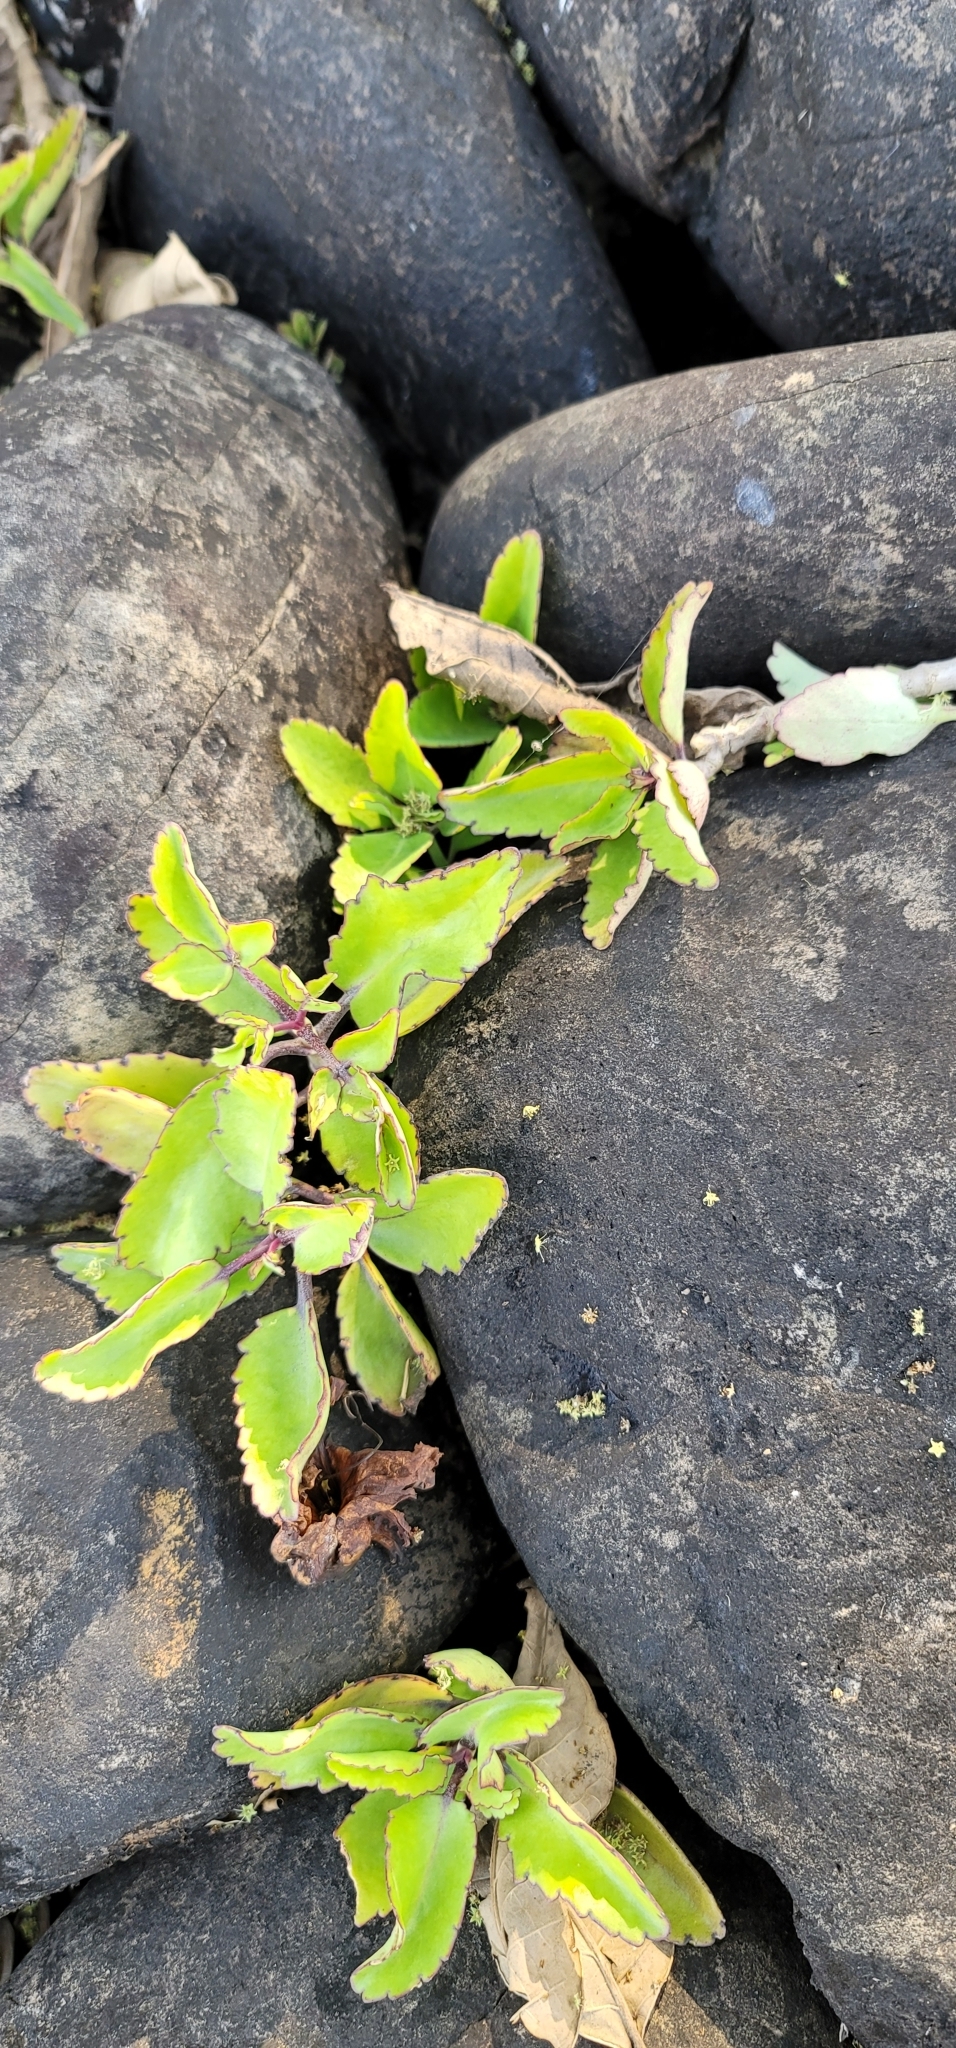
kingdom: Plantae
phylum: Tracheophyta
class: Magnoliopsida
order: Saxifragales
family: Crassulaceae
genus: Kalanchoe
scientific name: Kalanchoe pinnata
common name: Cathedral bells
